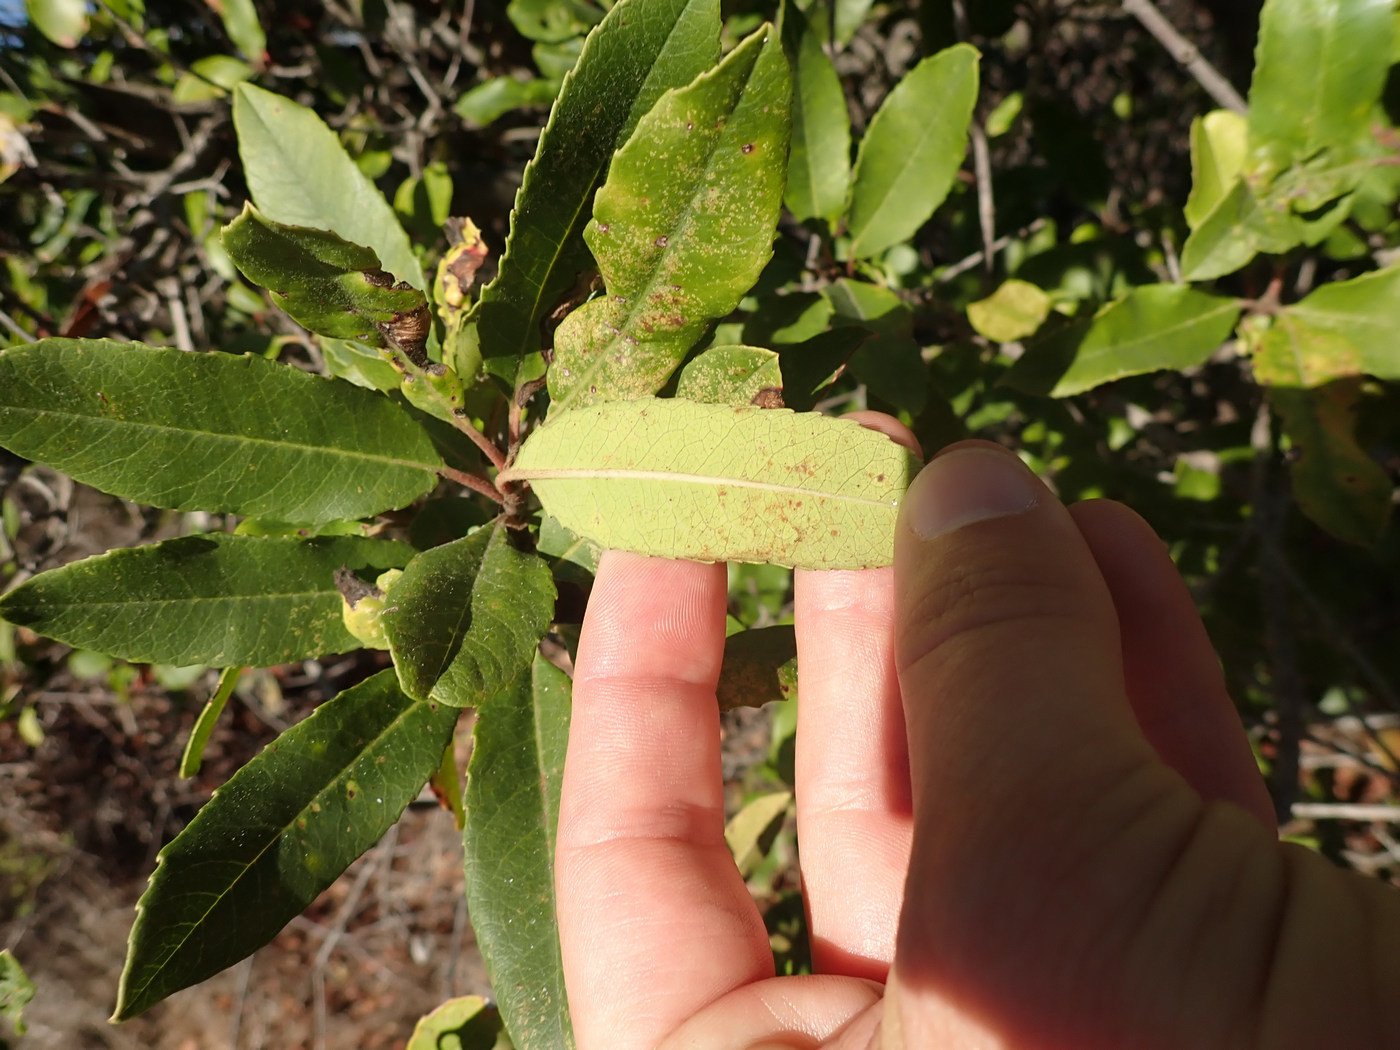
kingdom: Plantae
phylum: Tracheophyta
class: Magnoliopsida
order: Rosales
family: Rosaceae
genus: Heteromeles
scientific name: Heteromeles arbutifolia
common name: California-holly
